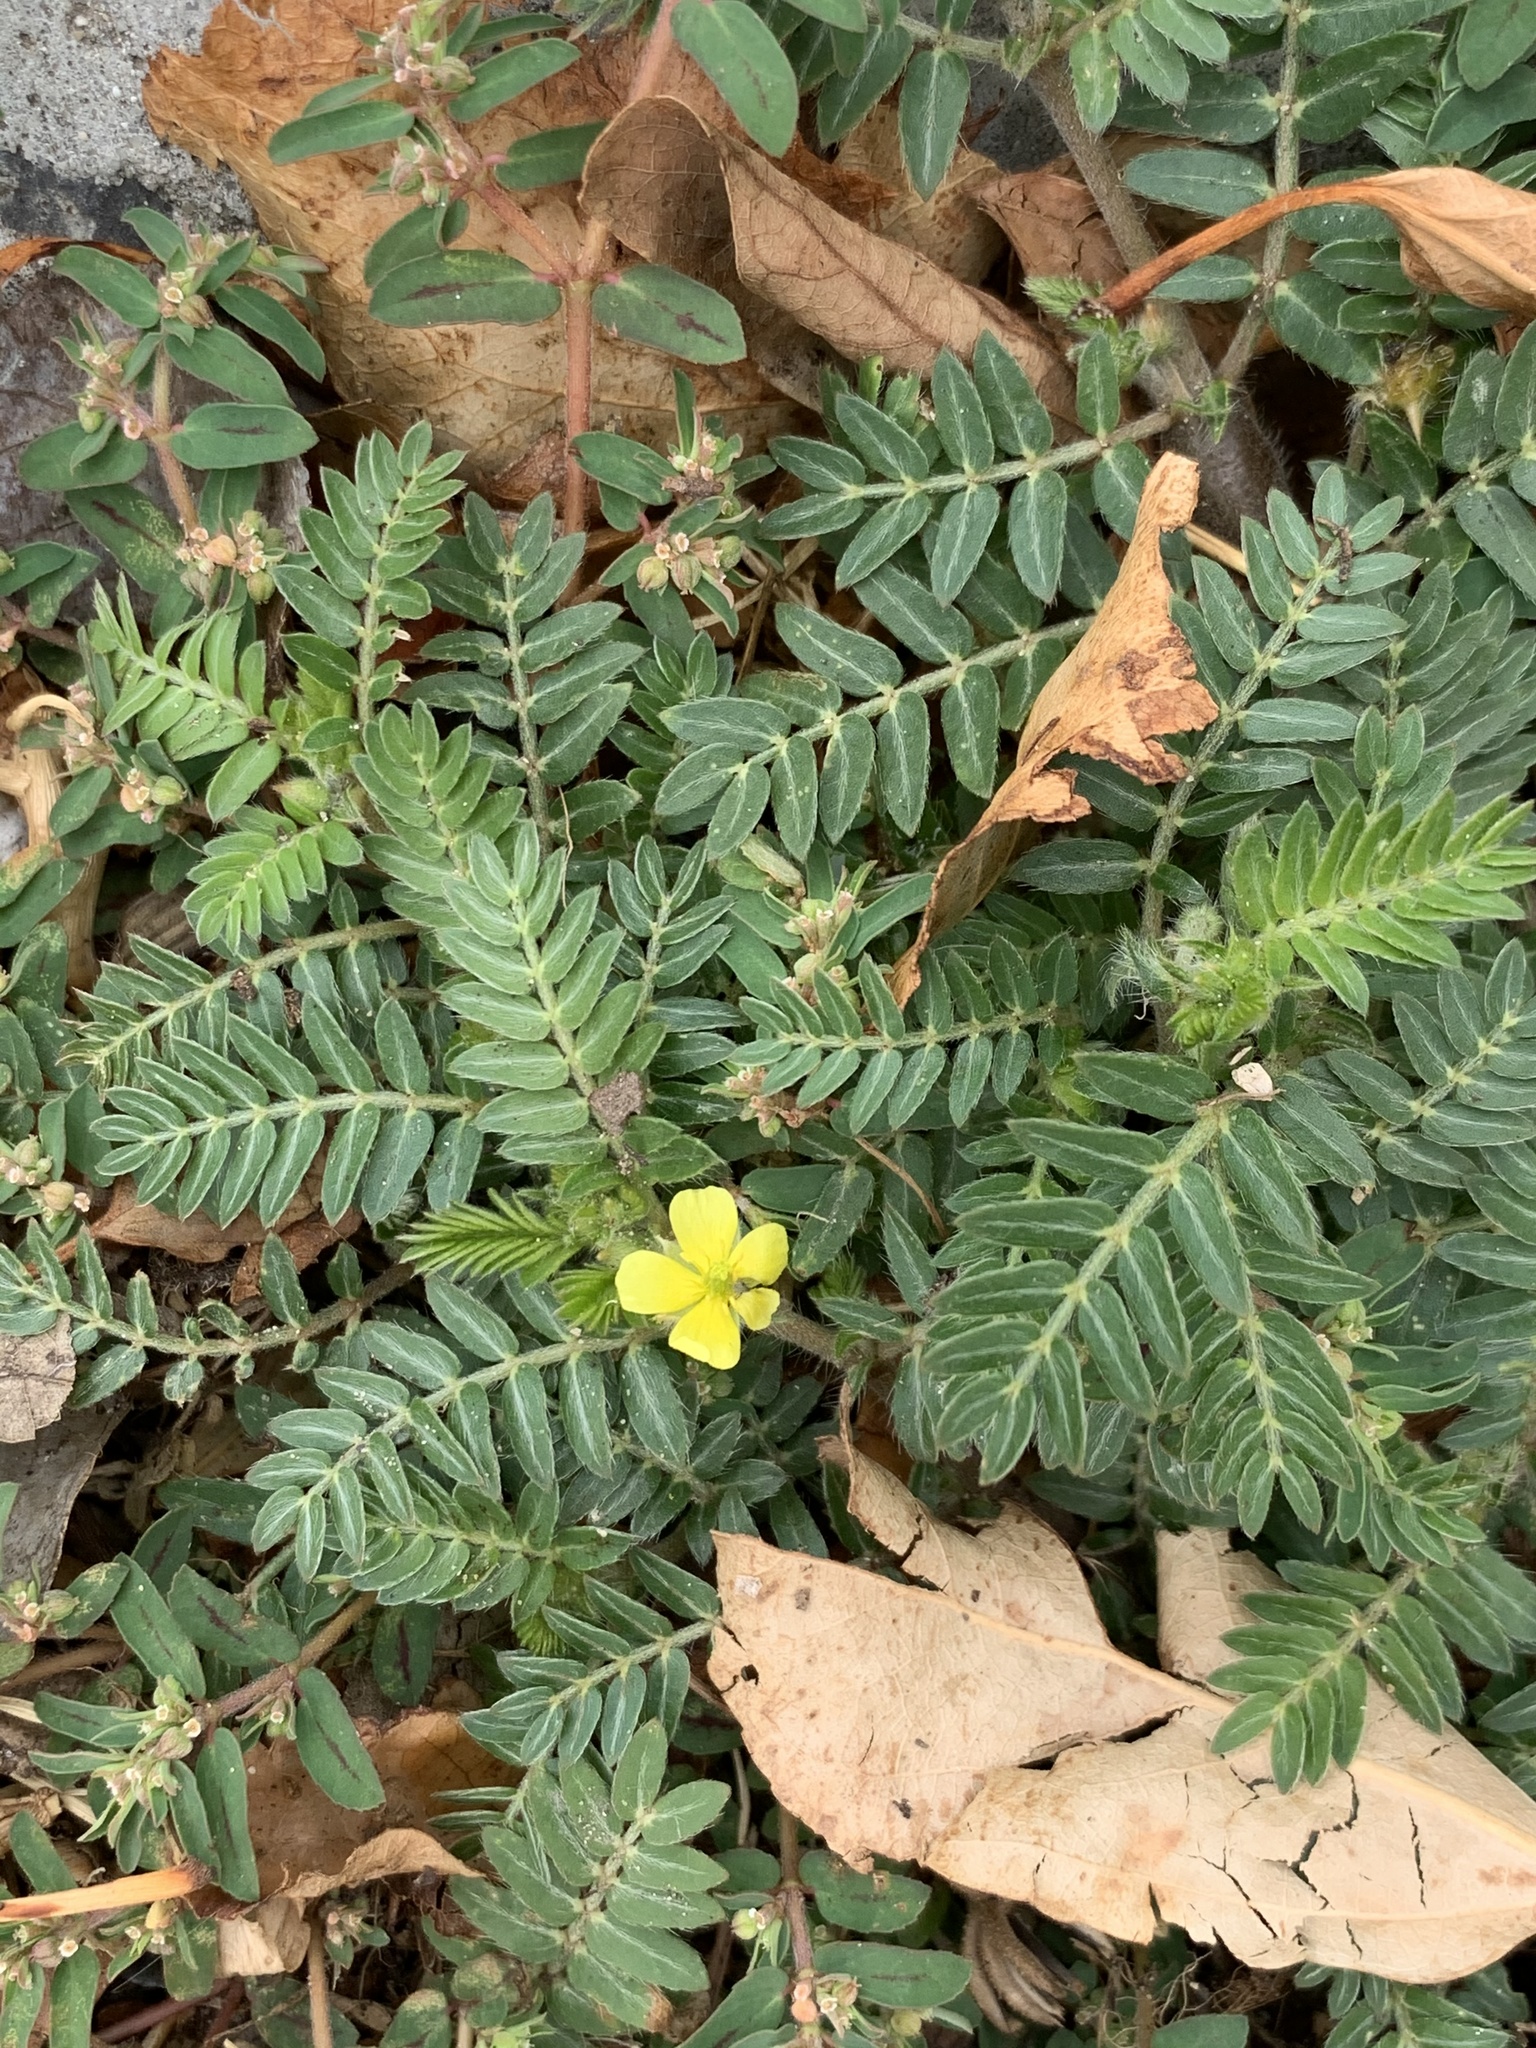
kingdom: Plantae
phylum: Tracheophyta
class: Magnoliopsida
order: Zygophyllales
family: Zygophyllaceae
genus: Tribulus
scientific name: Tribulus terrestris
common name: Puncturevine
